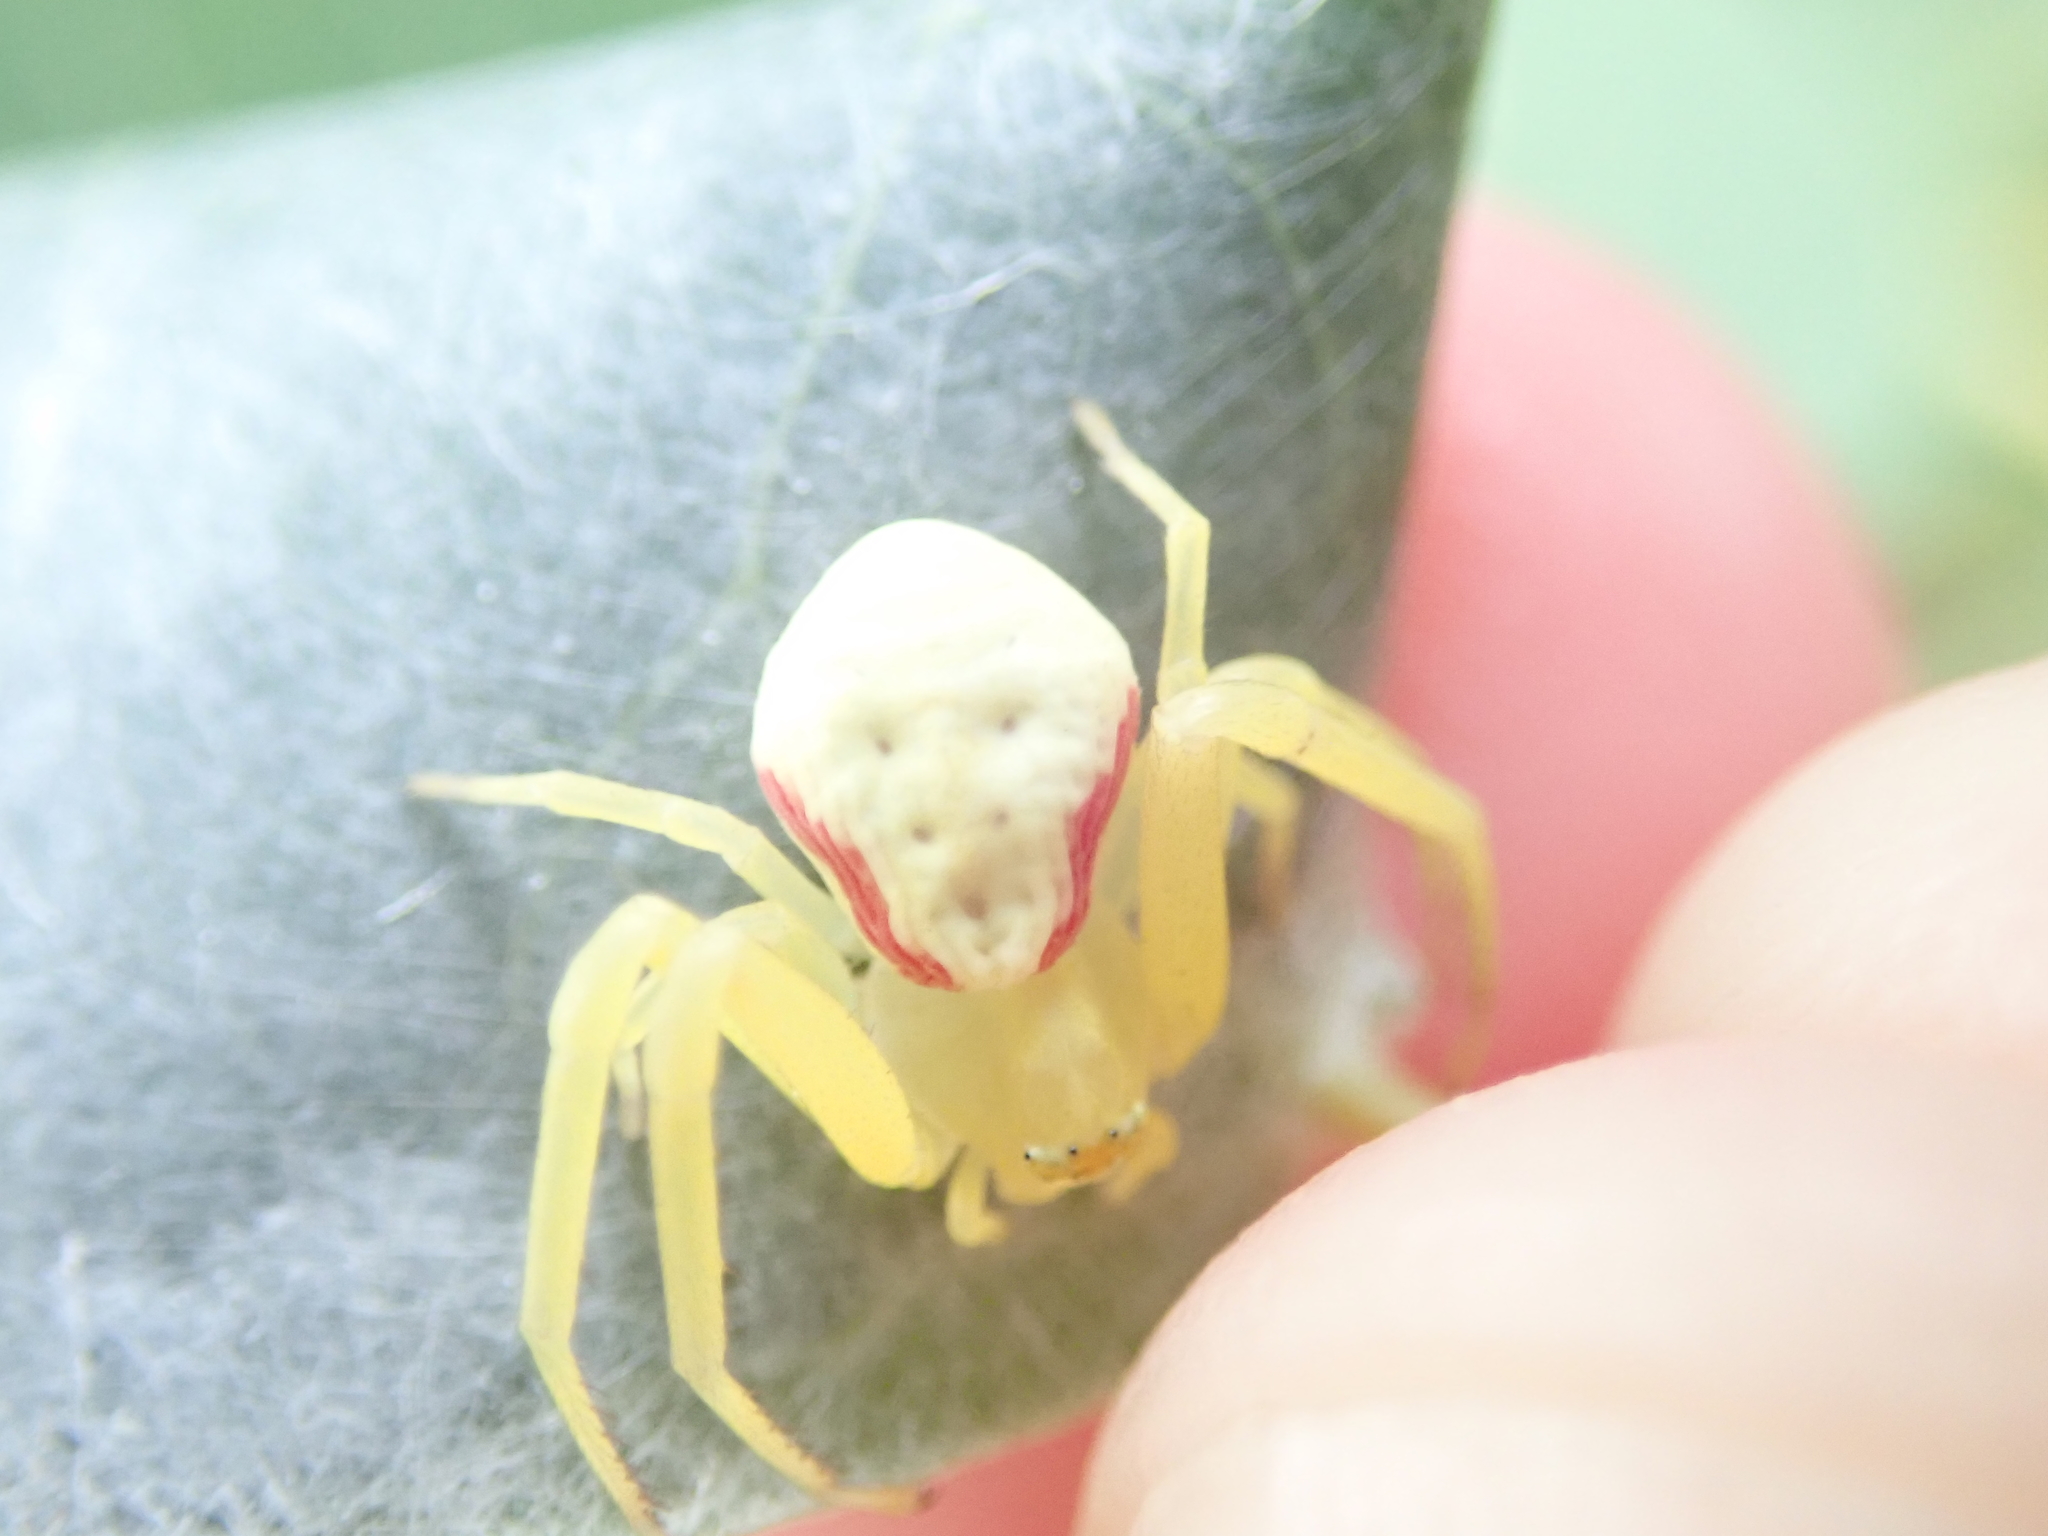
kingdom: Animalia
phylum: Arthropoda
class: Arachnida
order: Araneae
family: Thomisidae
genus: Misumena
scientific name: Misumena vatia
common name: Goldenrod crab spider
